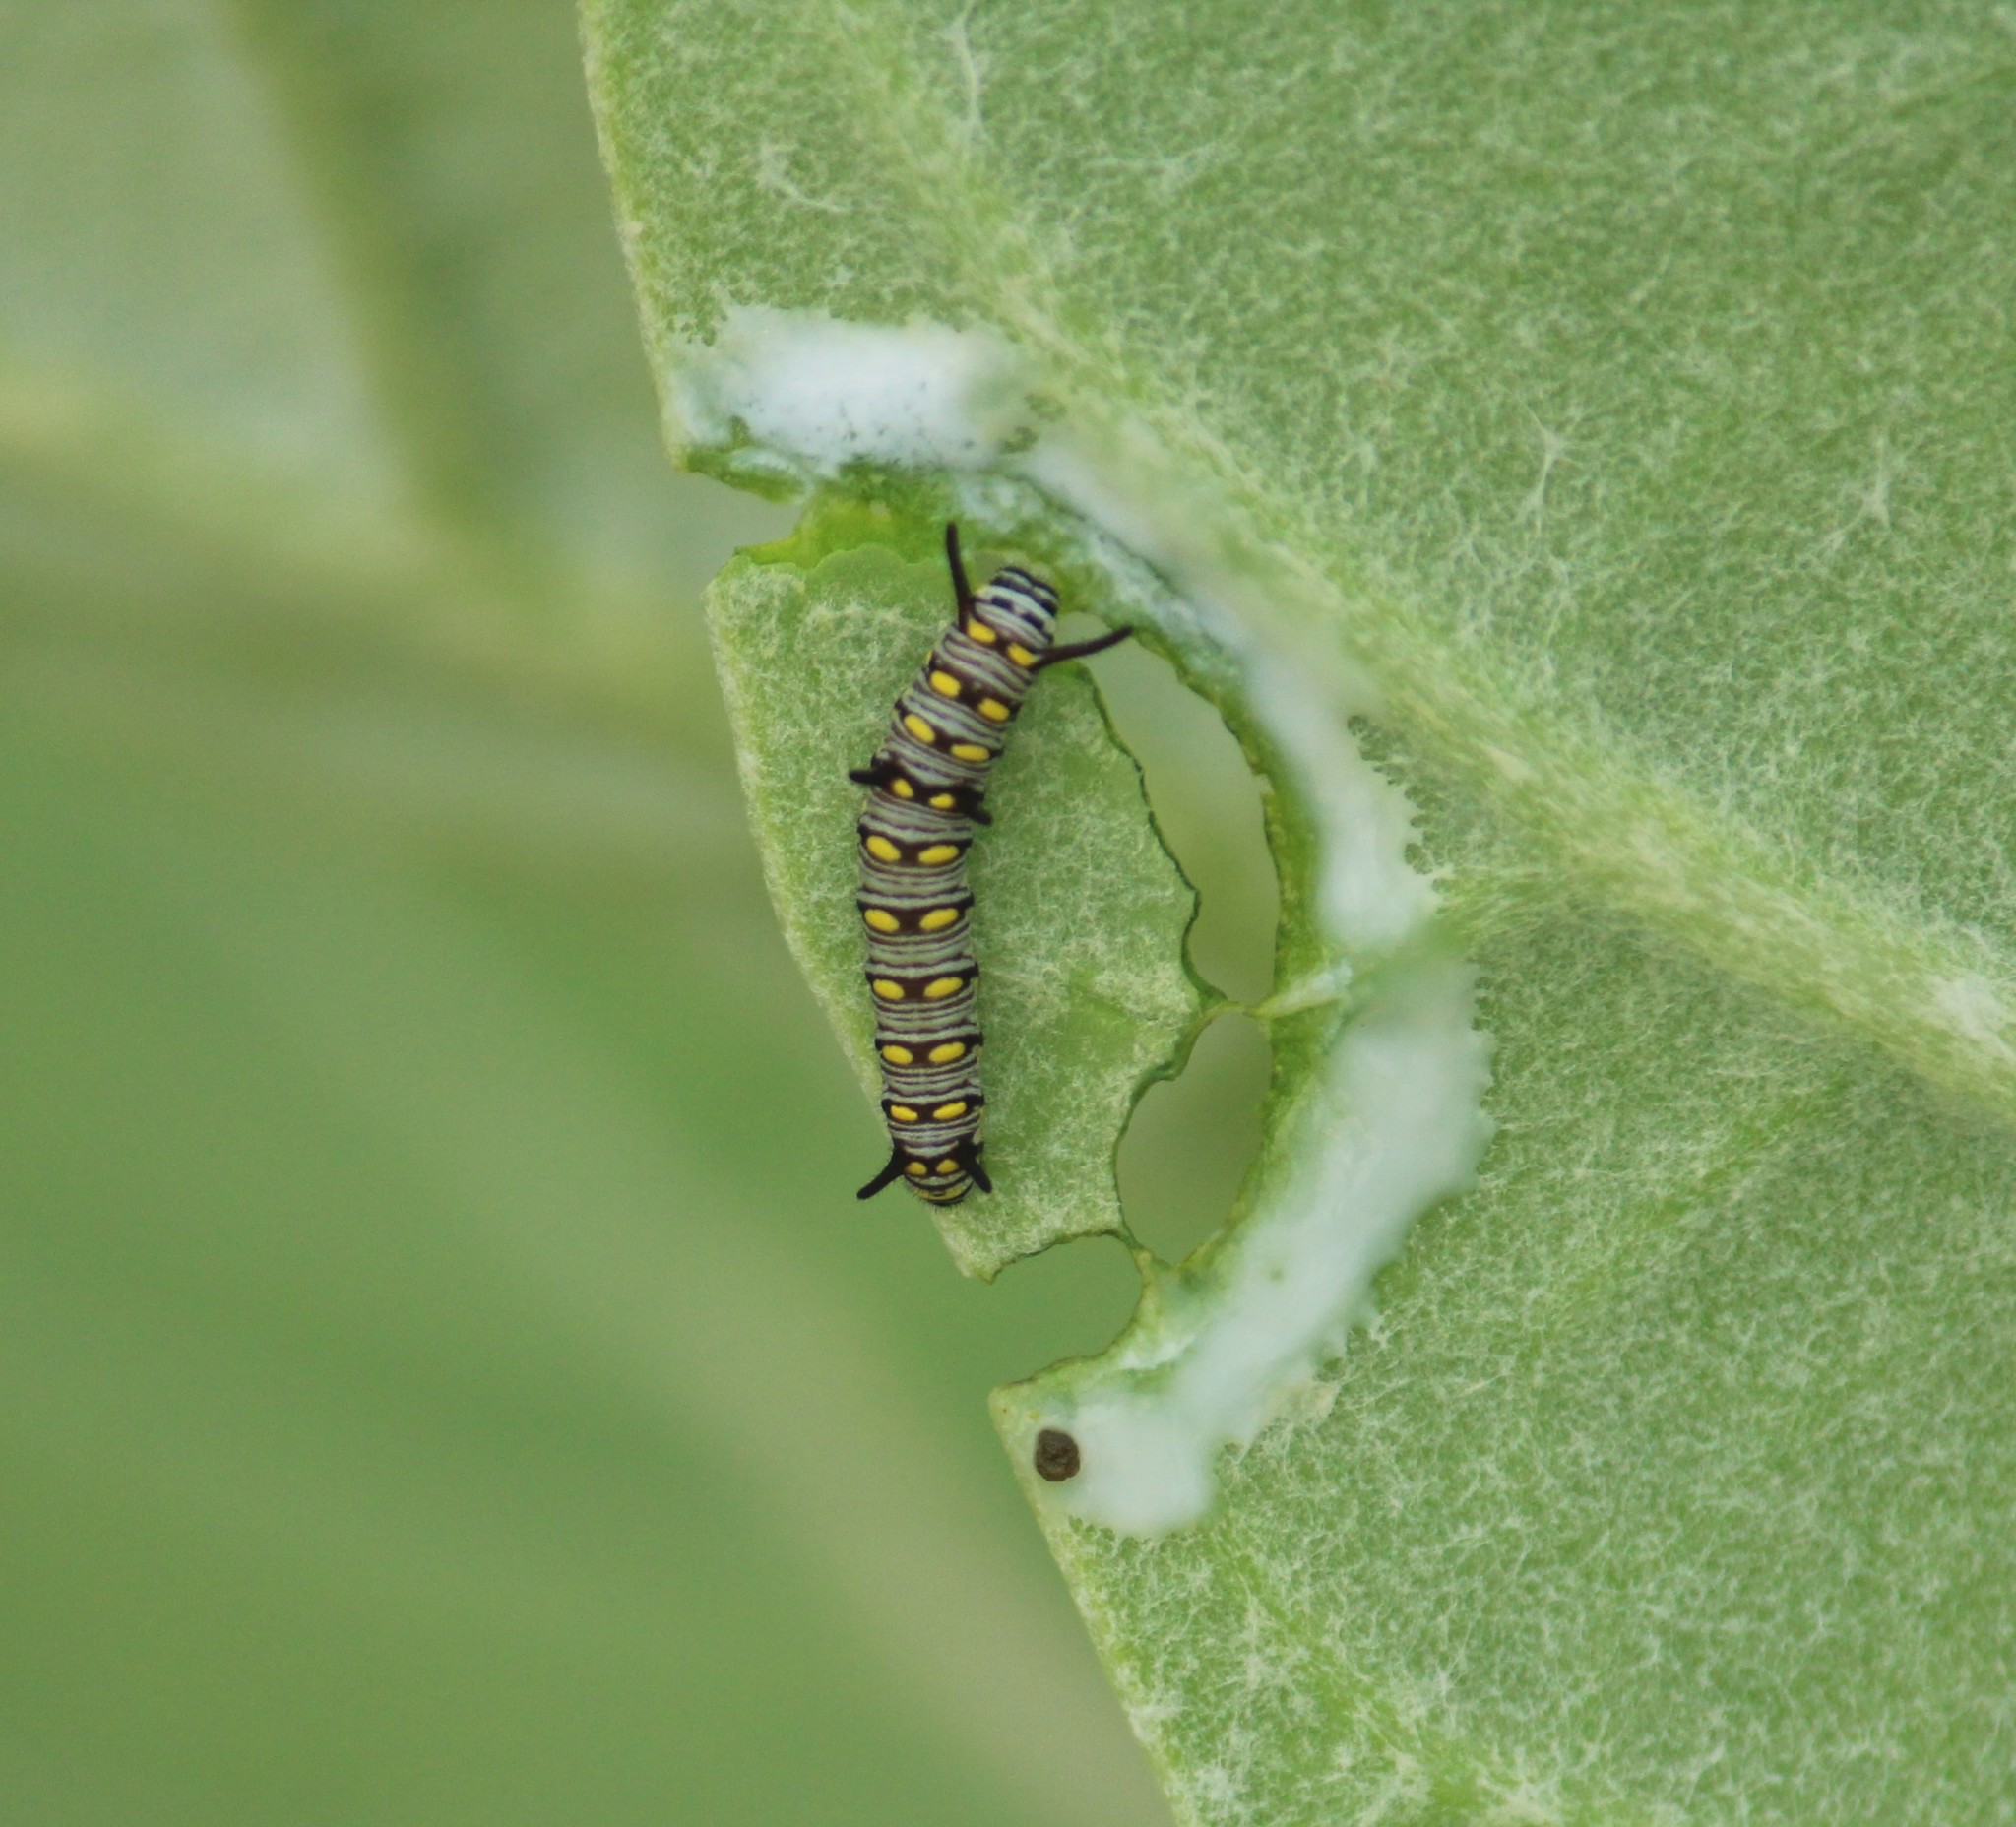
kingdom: Animalia
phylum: Arthropoda
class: Insecta
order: Lepidoptera
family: Nymphalidae
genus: Danaus
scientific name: Danaus chrysippus
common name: Plain tiger
